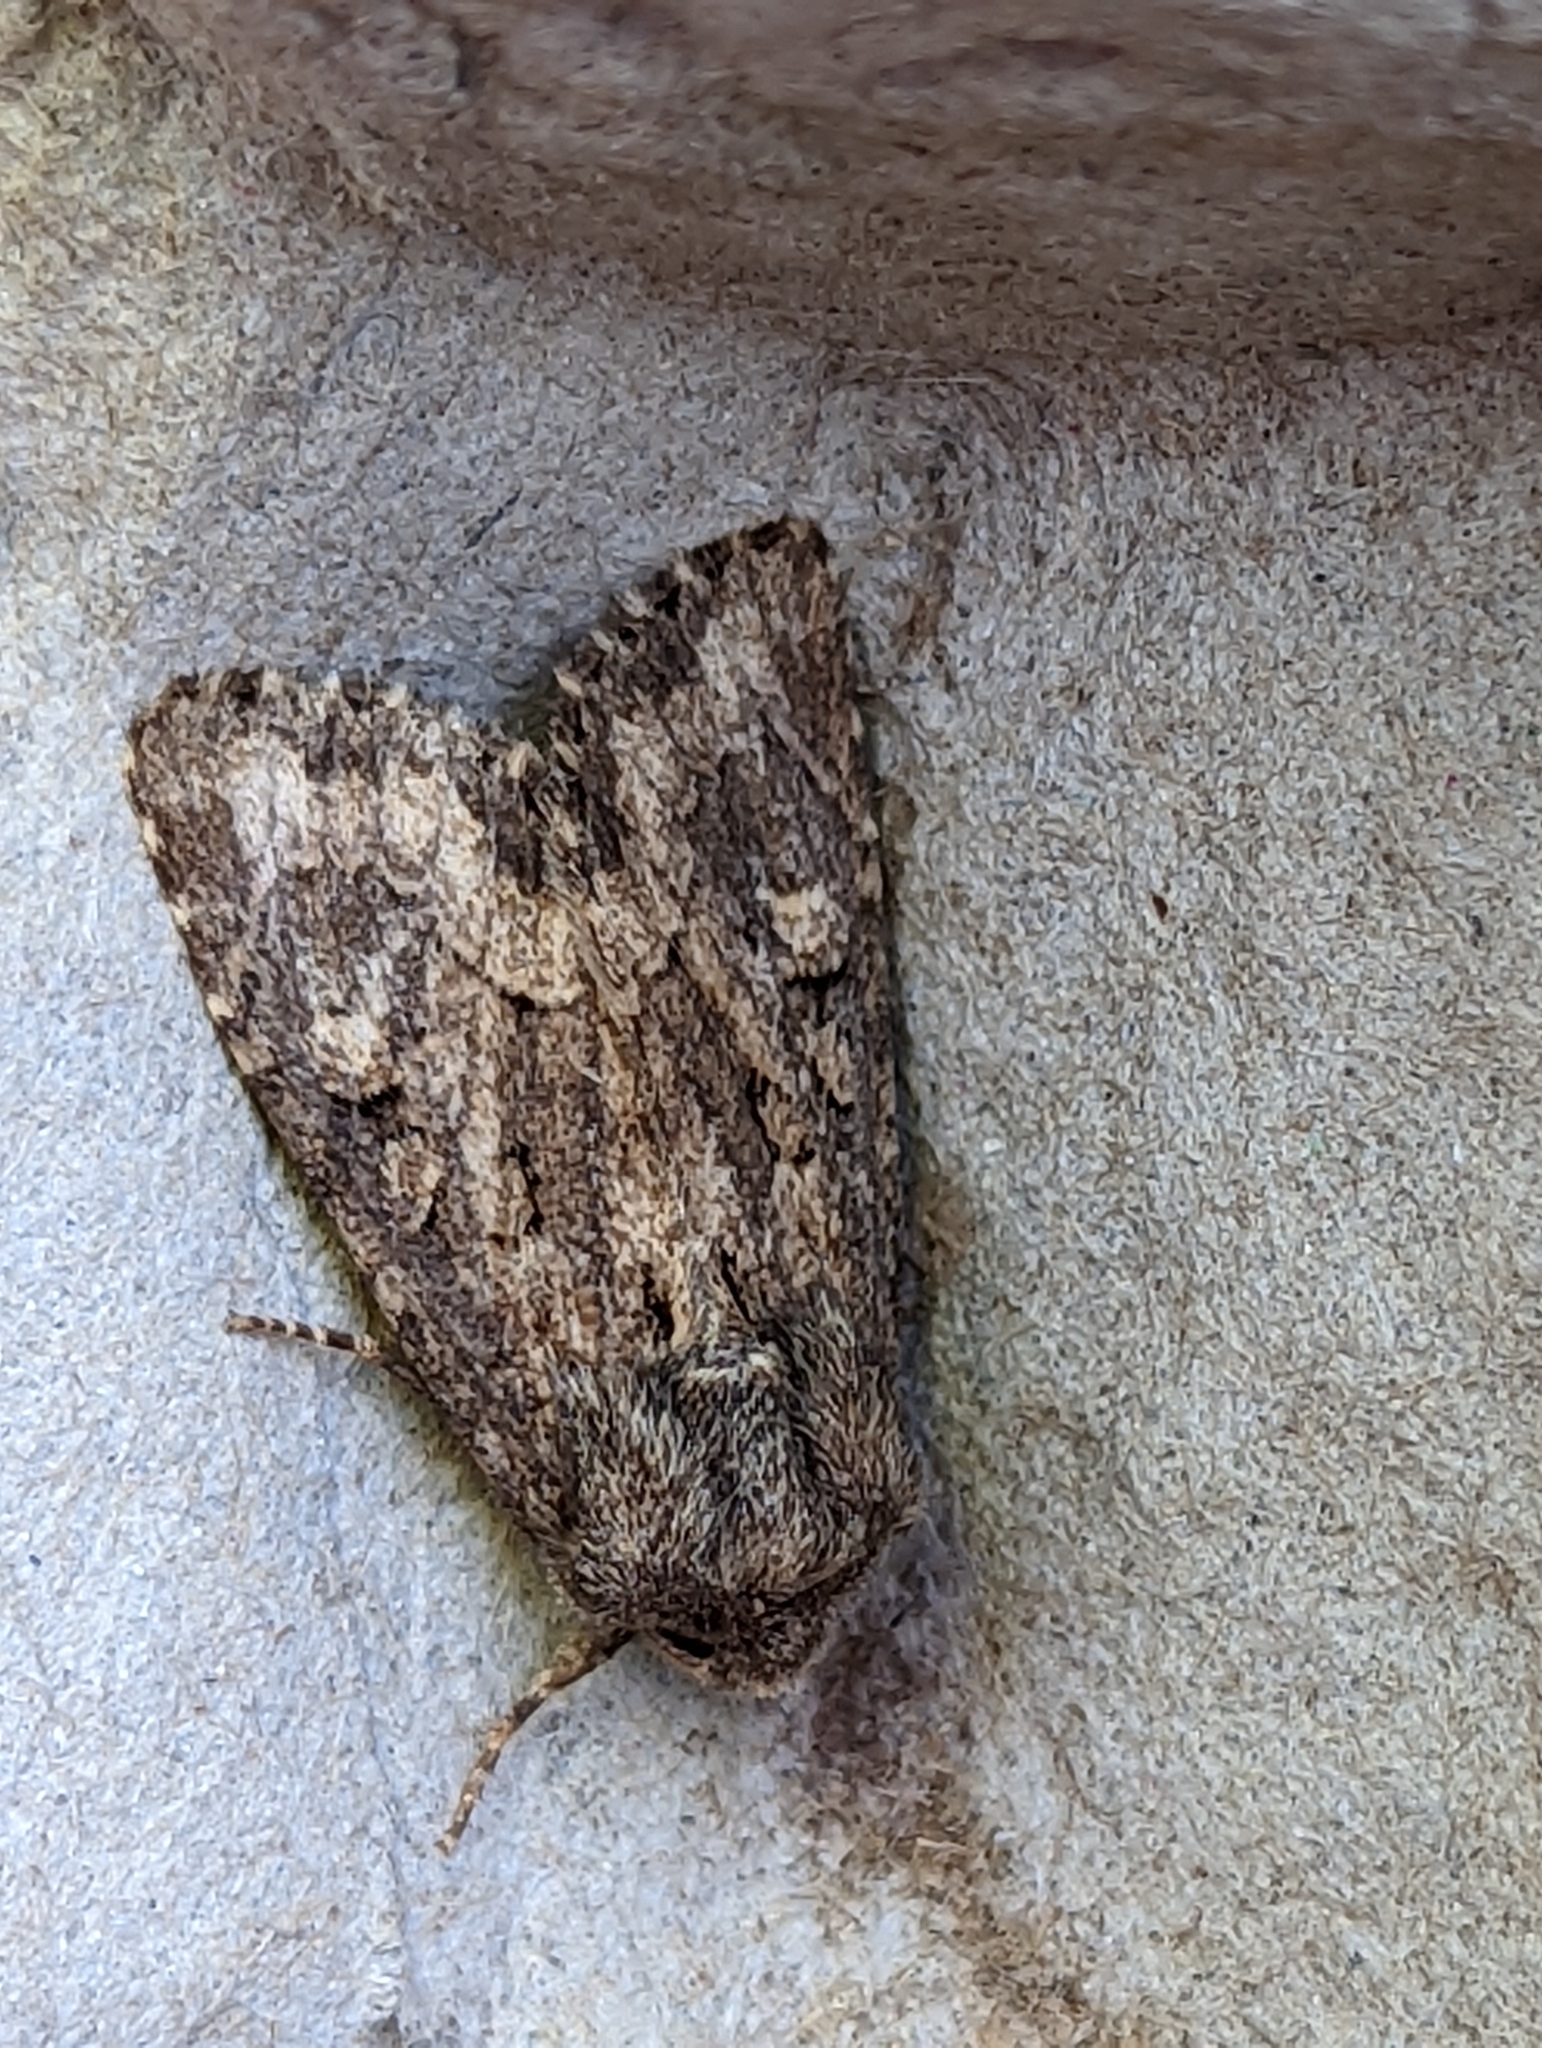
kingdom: Animalia
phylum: Arthropoda
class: Insecta
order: Lepidoptera
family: Noctuidae
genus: Luperina
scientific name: Luperina testacea
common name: Flounced rustic
